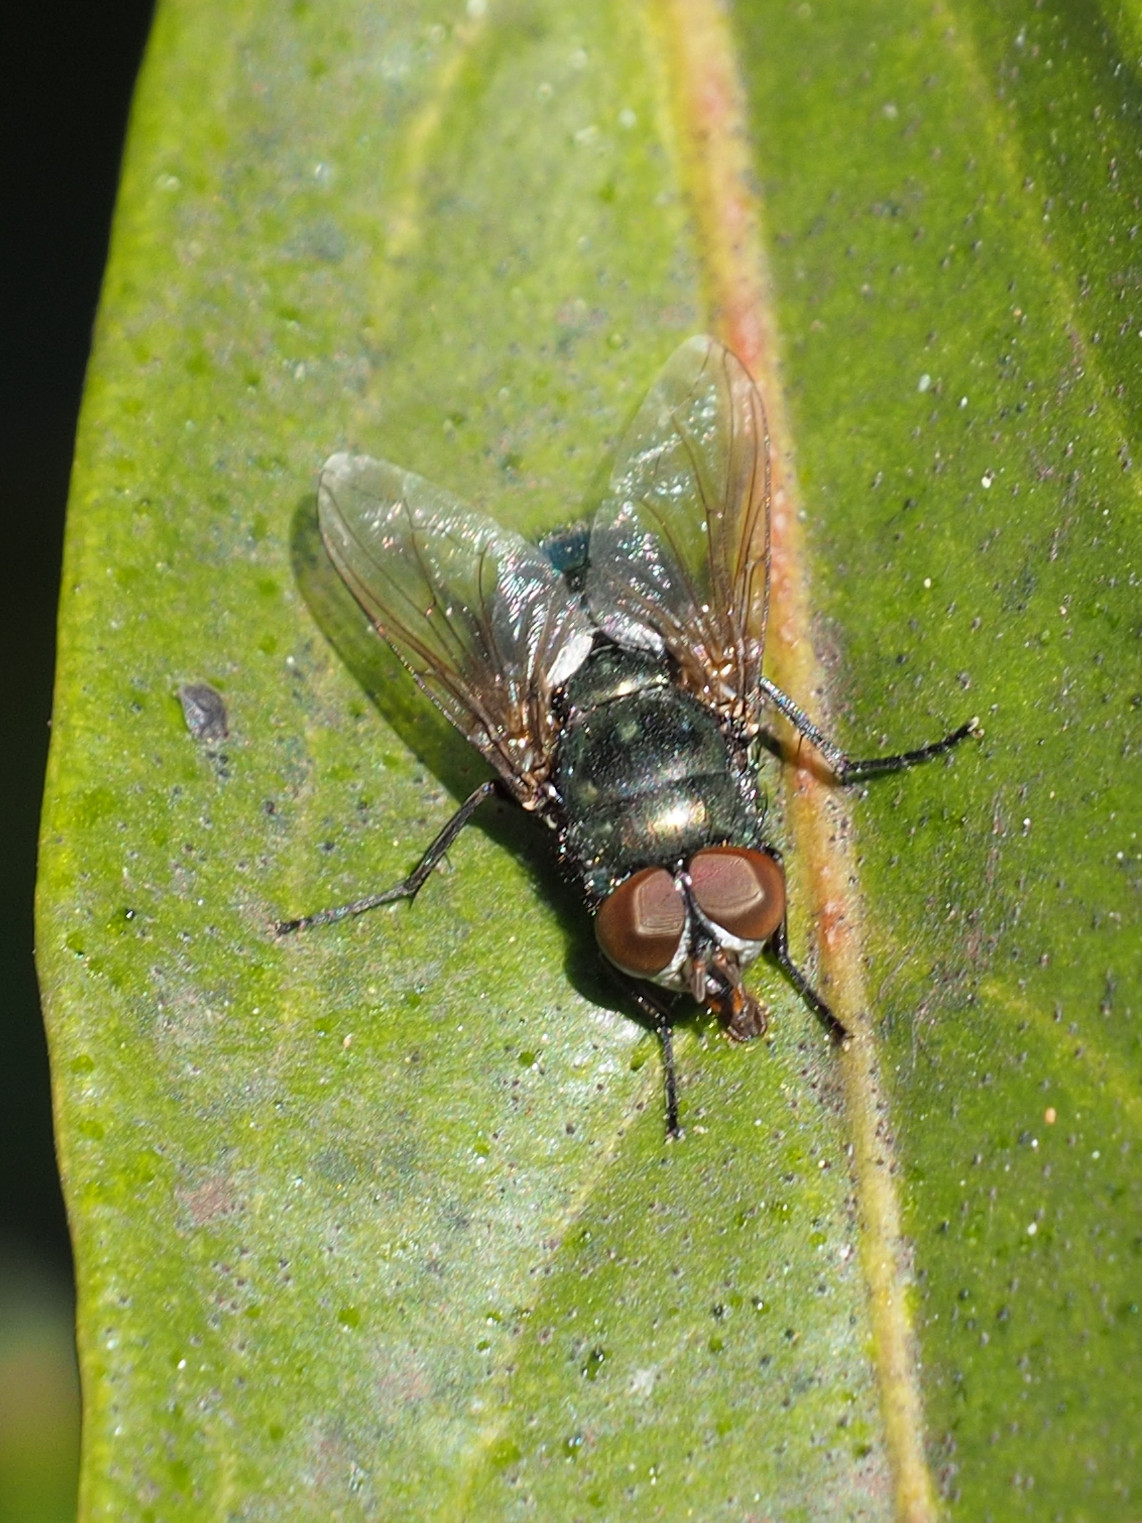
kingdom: Animalia
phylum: Arthropoda
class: Insecta
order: Diptera
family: Calliphoridae
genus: Phormia
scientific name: Phormia regina
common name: Black blow fly
